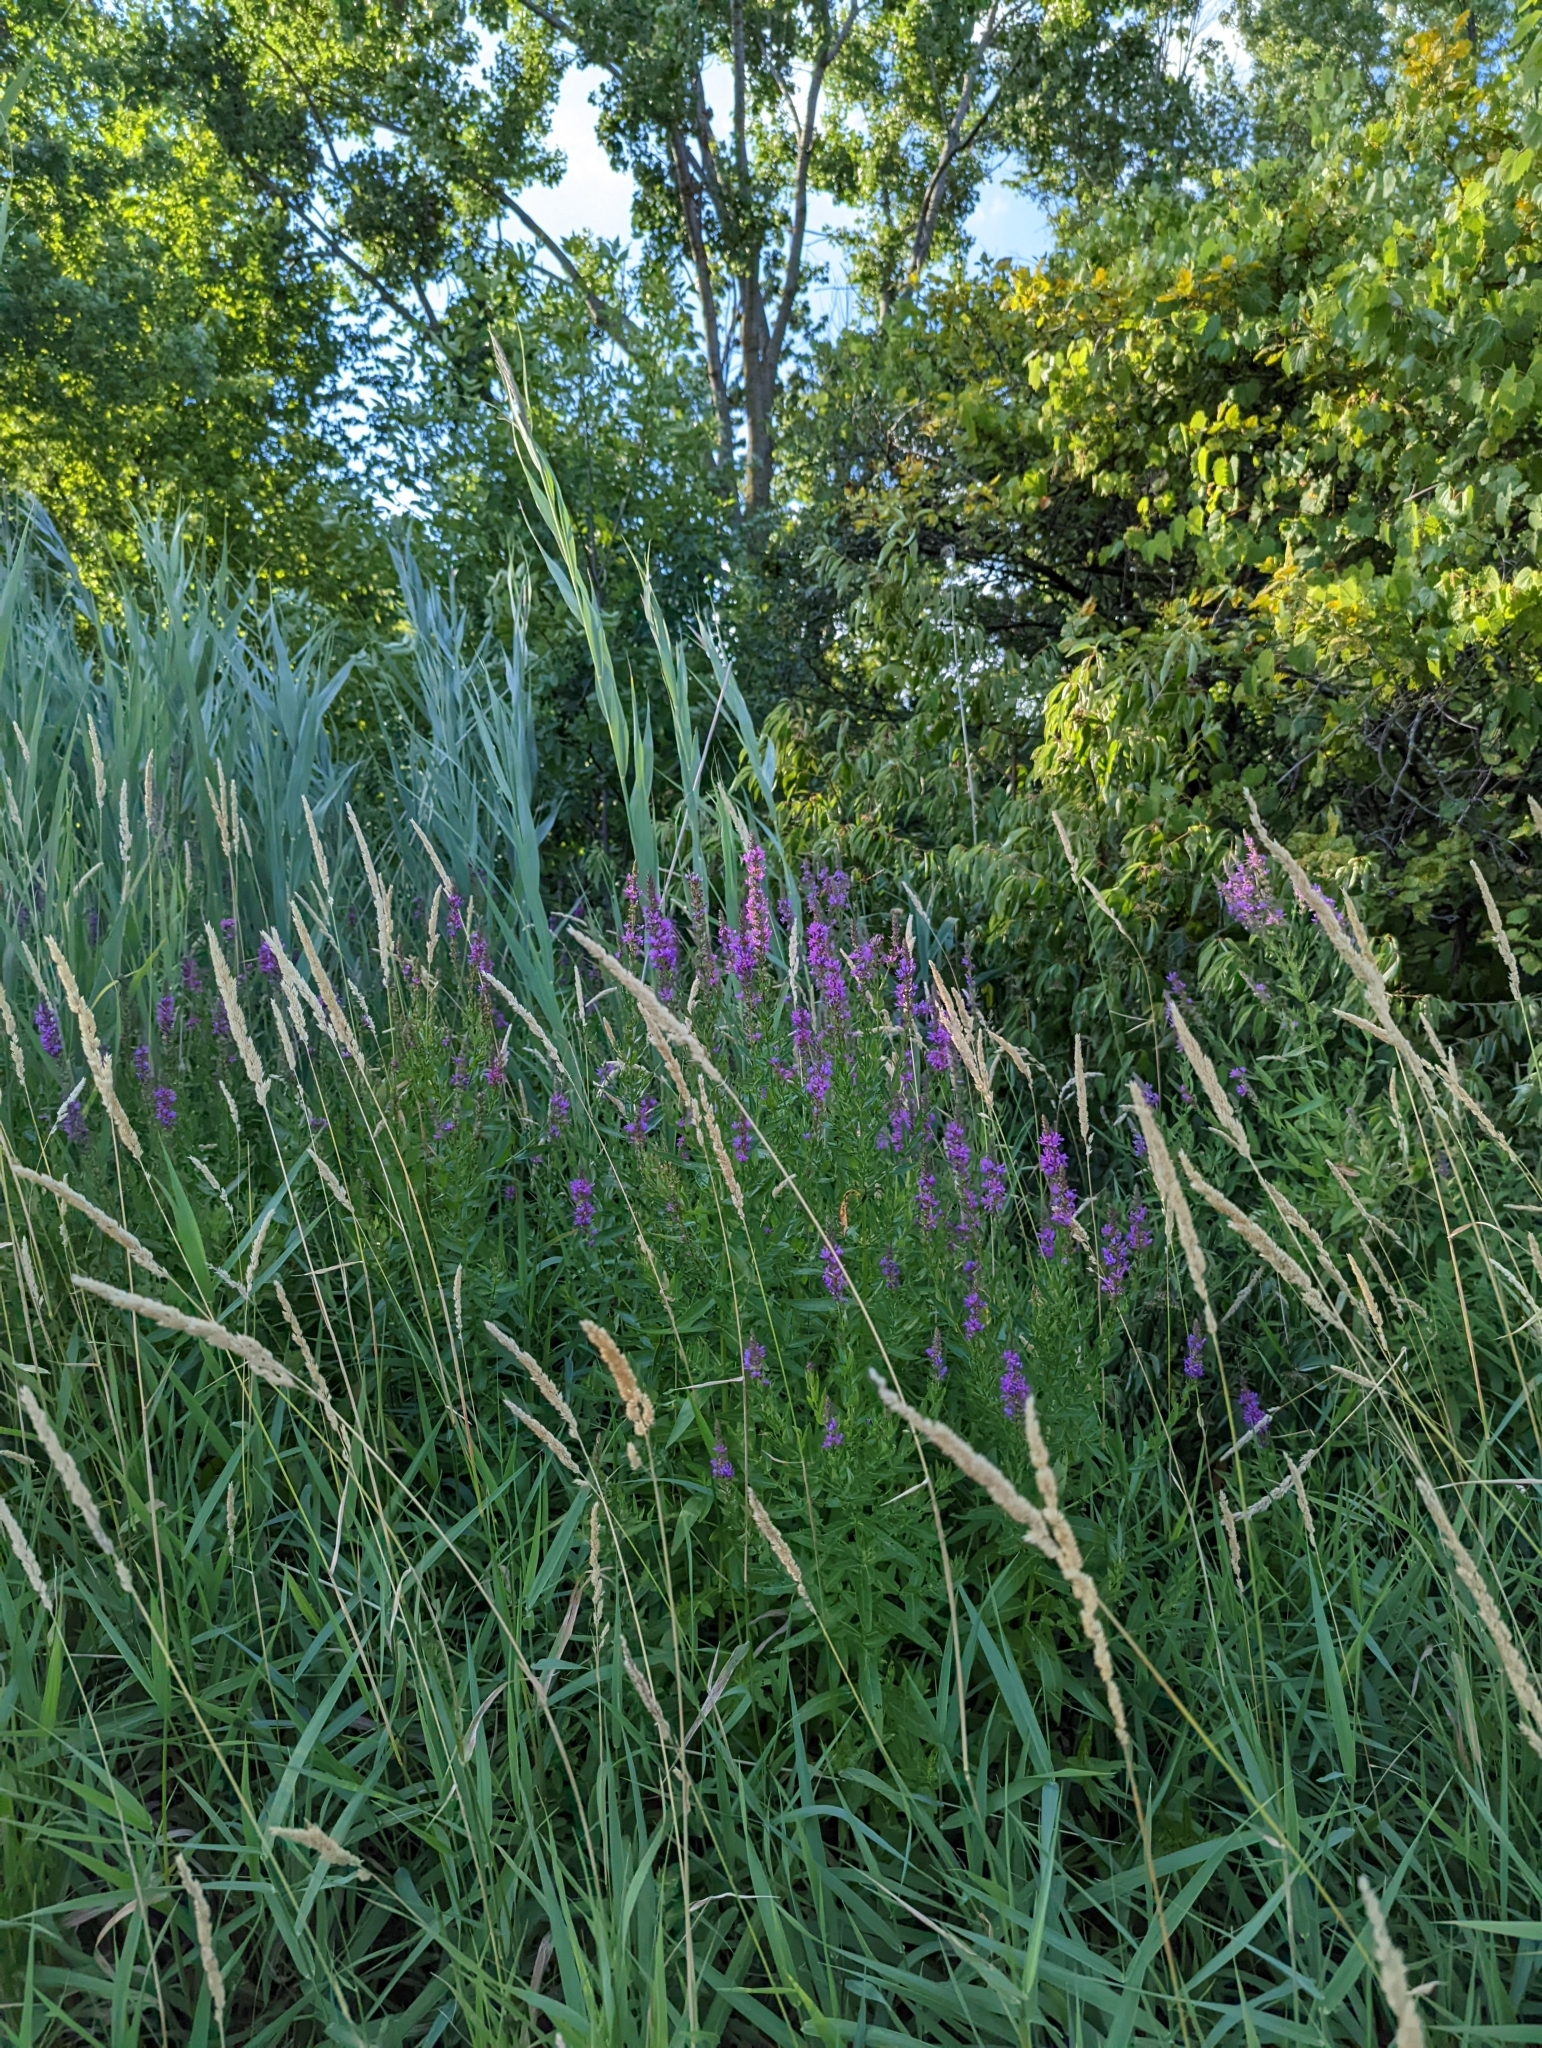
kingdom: Plantae
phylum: Tracheophyta
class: Magnoliopsida
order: Myrtales
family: Lythraceae
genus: Lythrum
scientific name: Lythrum salicaria
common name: Purple loosestrife
